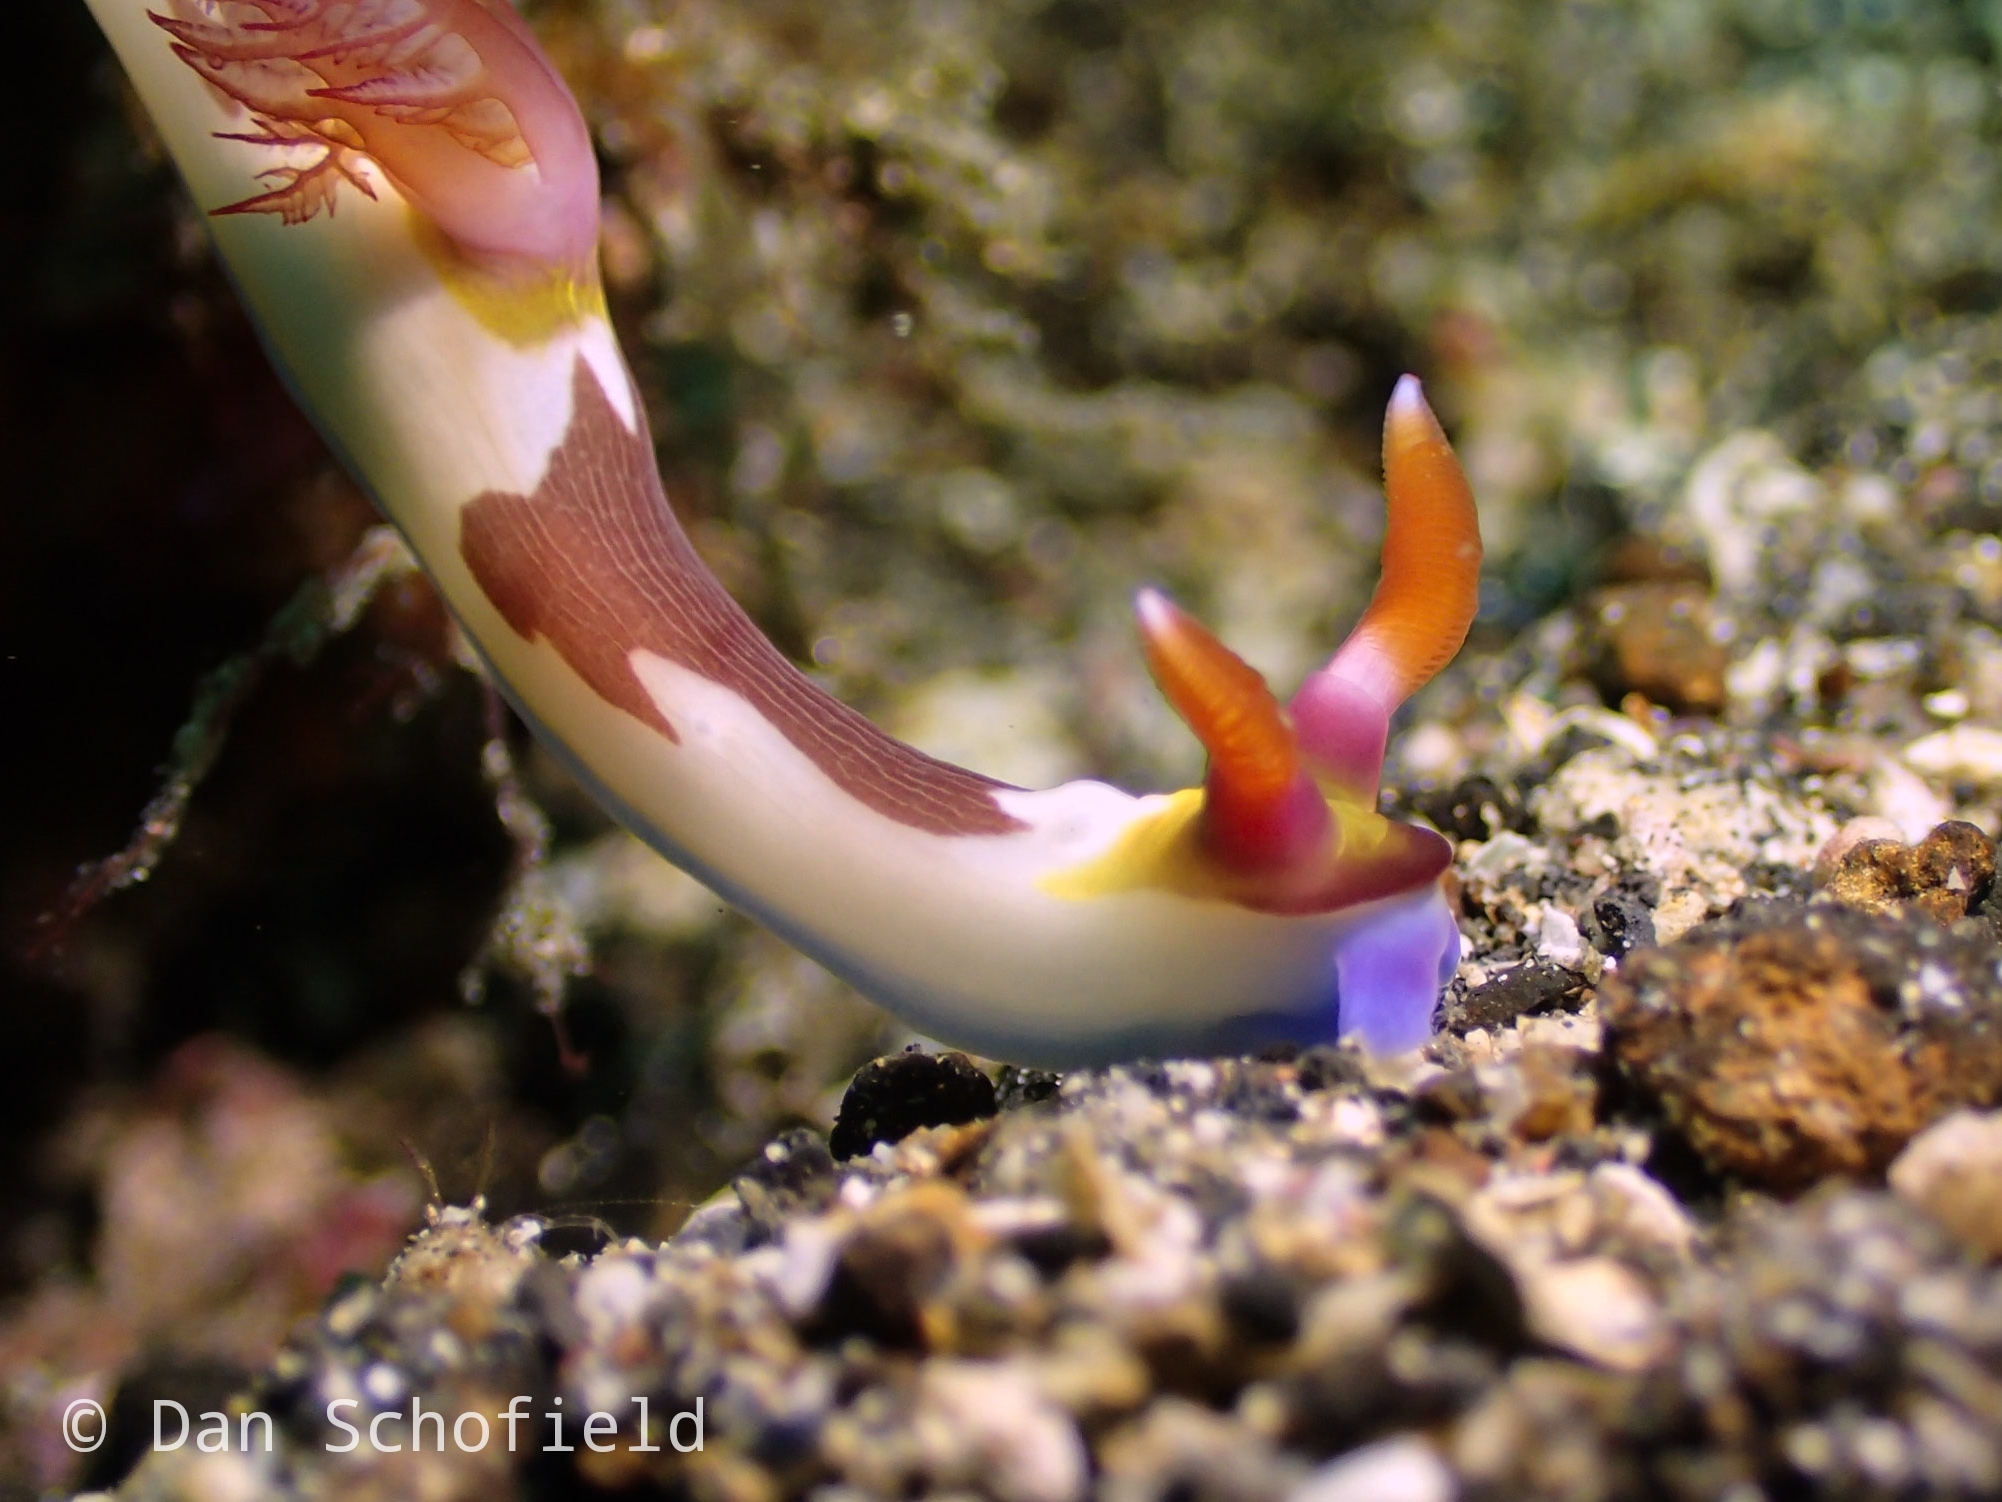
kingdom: Animalia
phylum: Mollusca
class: Gastropoda
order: Nudibranchia
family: Polyceridae
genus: Nembrotha
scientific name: Nembrotha chamberlaini
